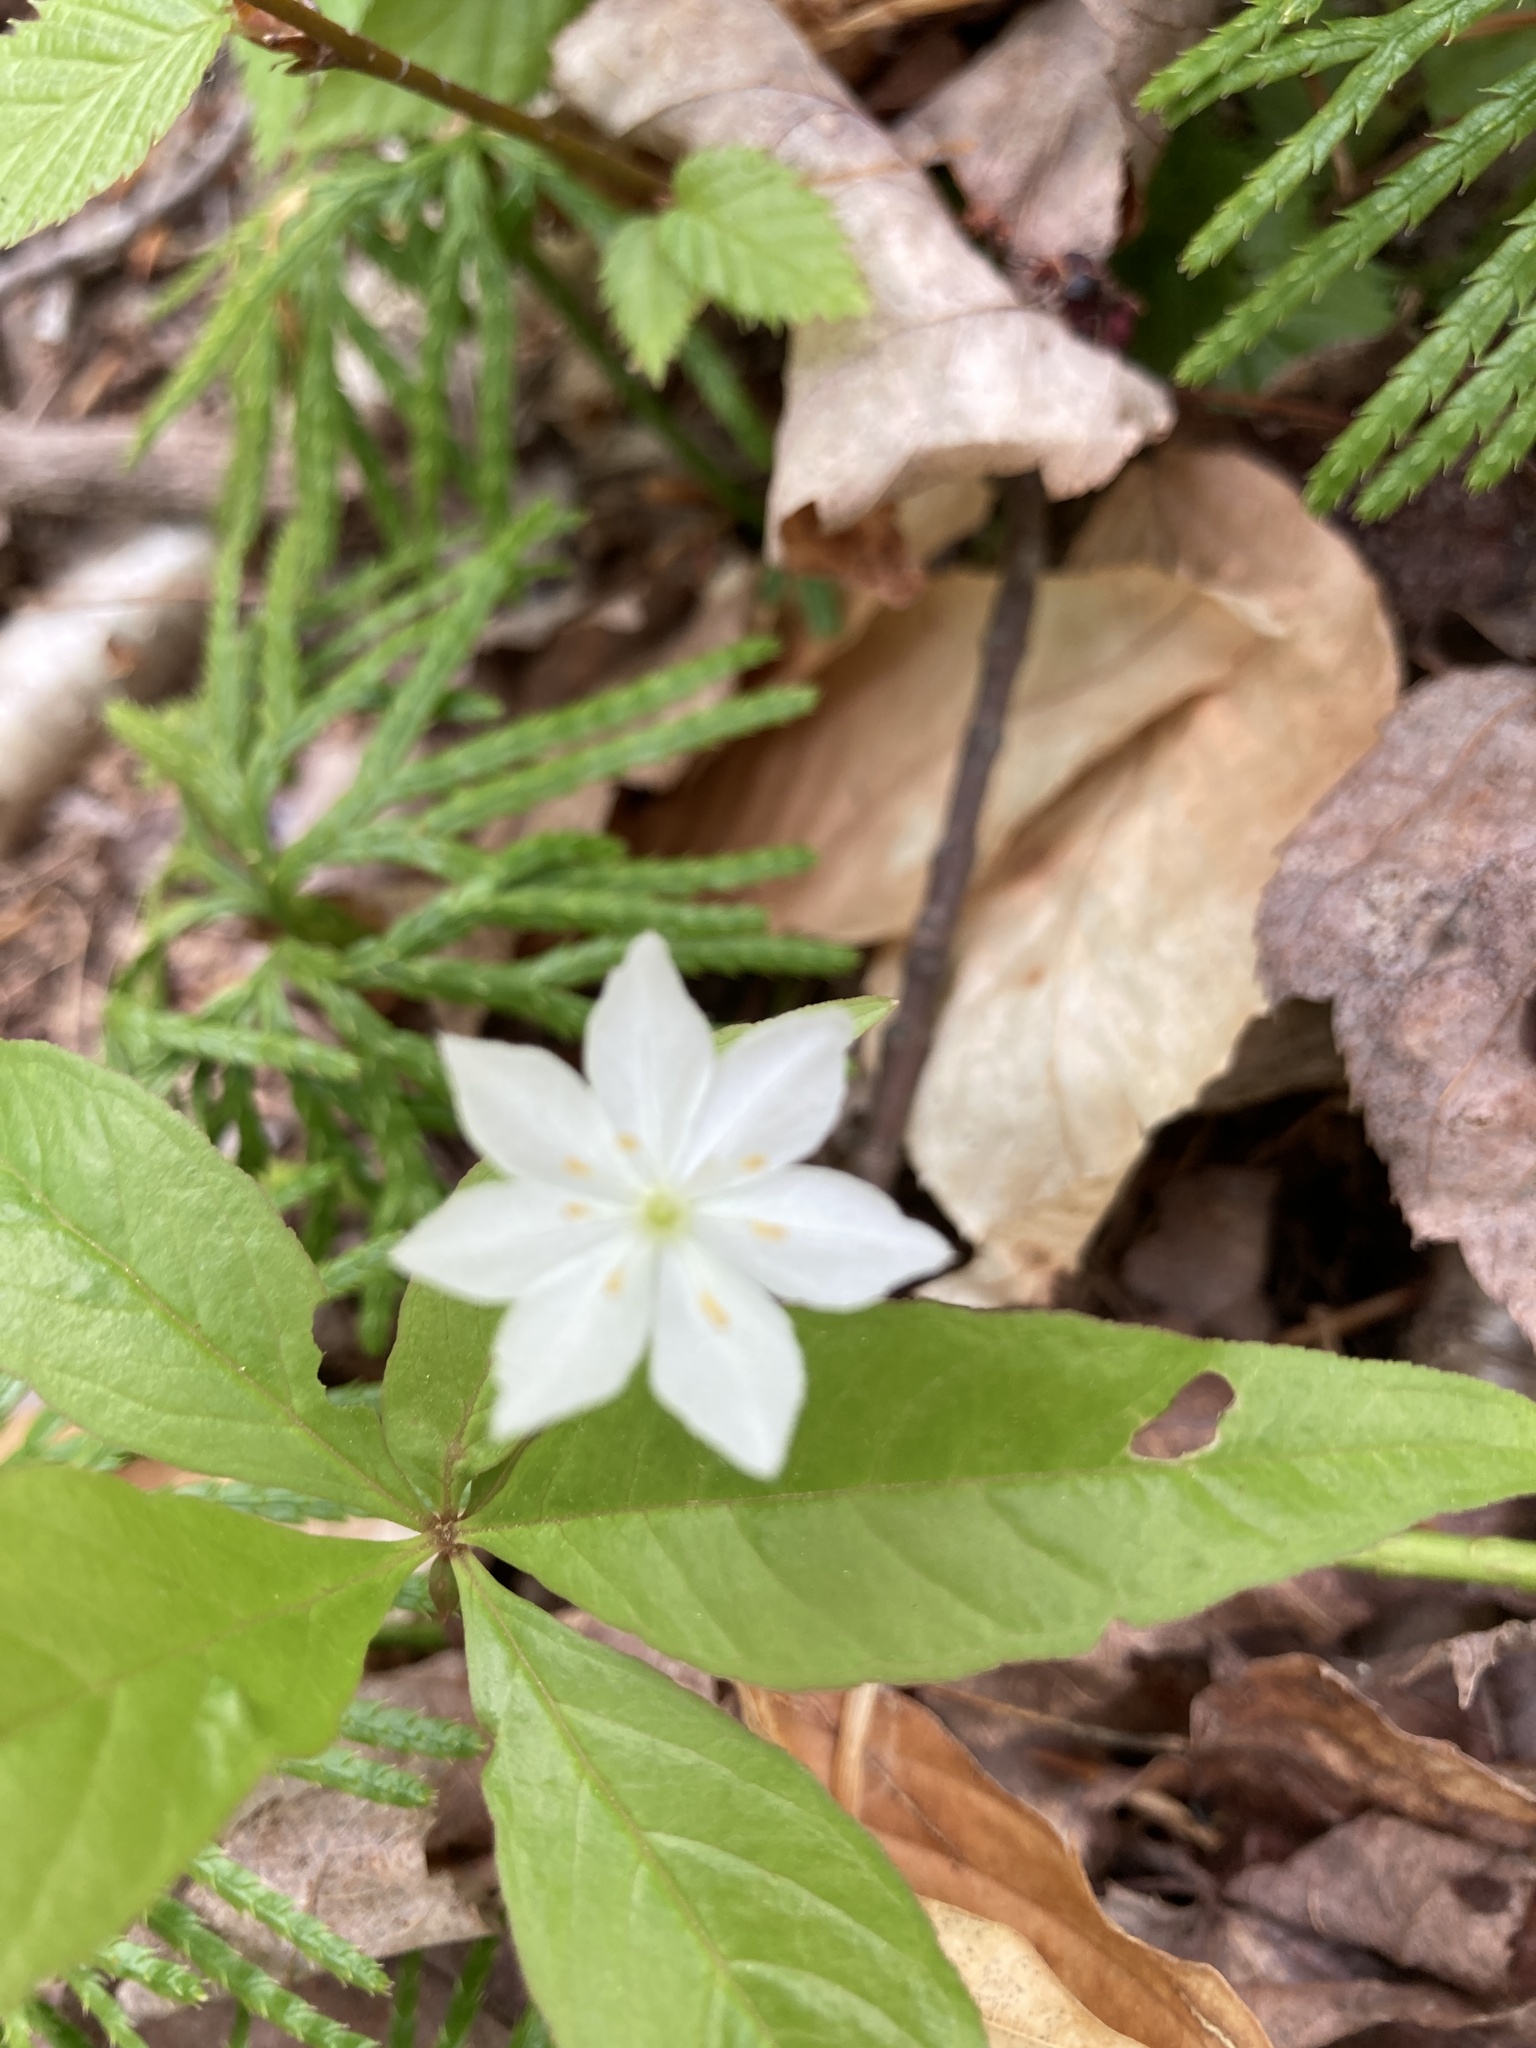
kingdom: Plantae
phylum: Tracheophyta
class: Magnoliopsida
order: Ericales
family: Primulaceae
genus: Lysimachia
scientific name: Lysimachia borealis
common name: American starflower
